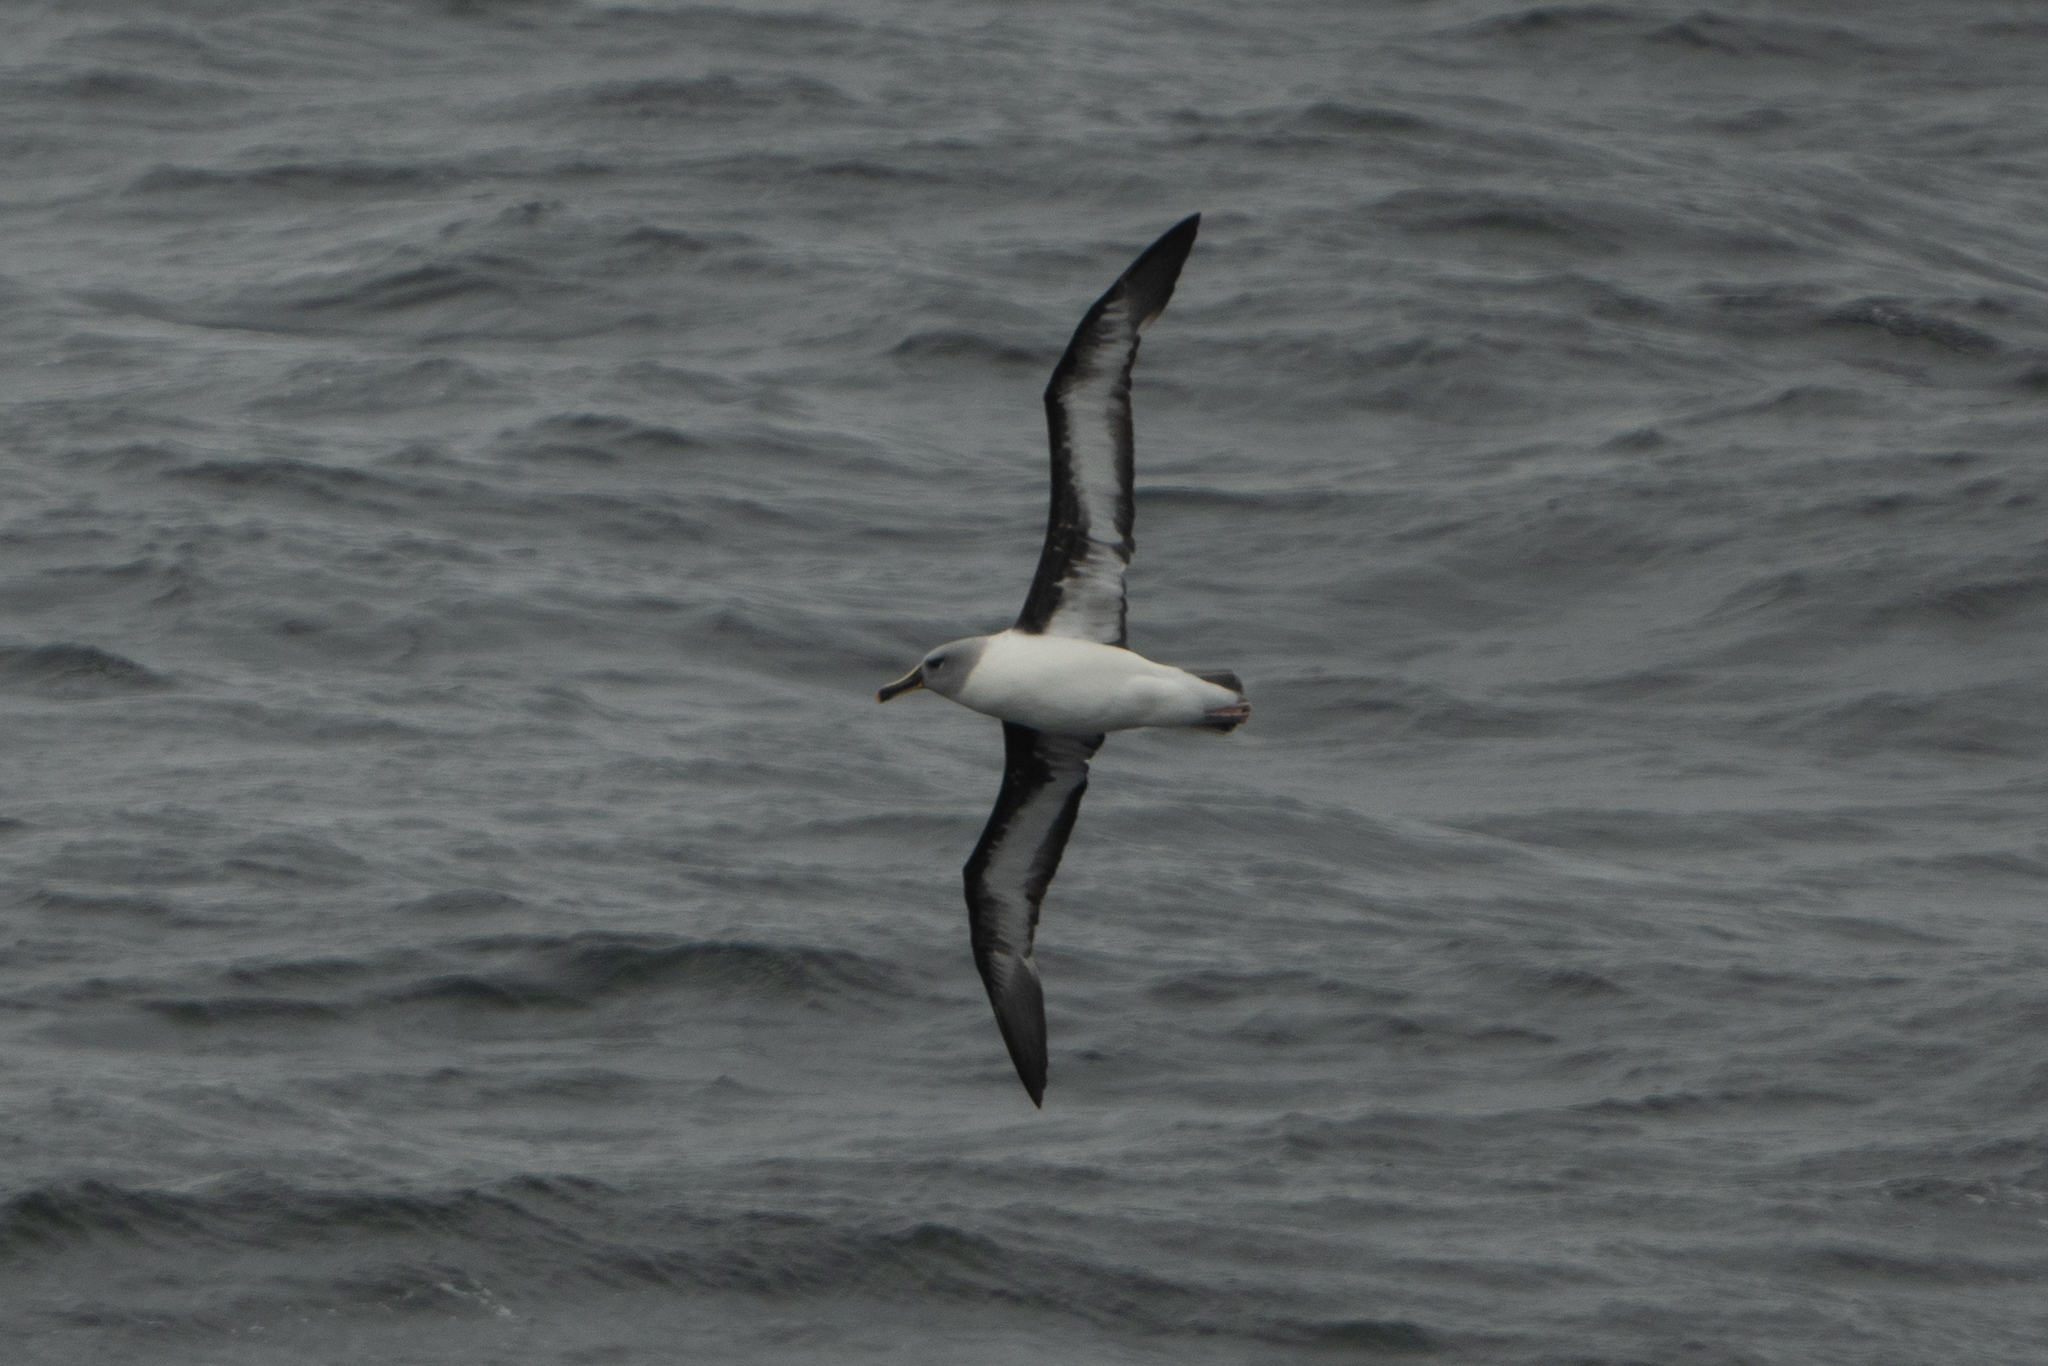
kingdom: Animalia
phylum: Chordata
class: Aves
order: Procellariiformes
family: Diomedeidae
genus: Thalassarche
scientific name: Thalassarche chrysostoma
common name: Grey-headed albatross
